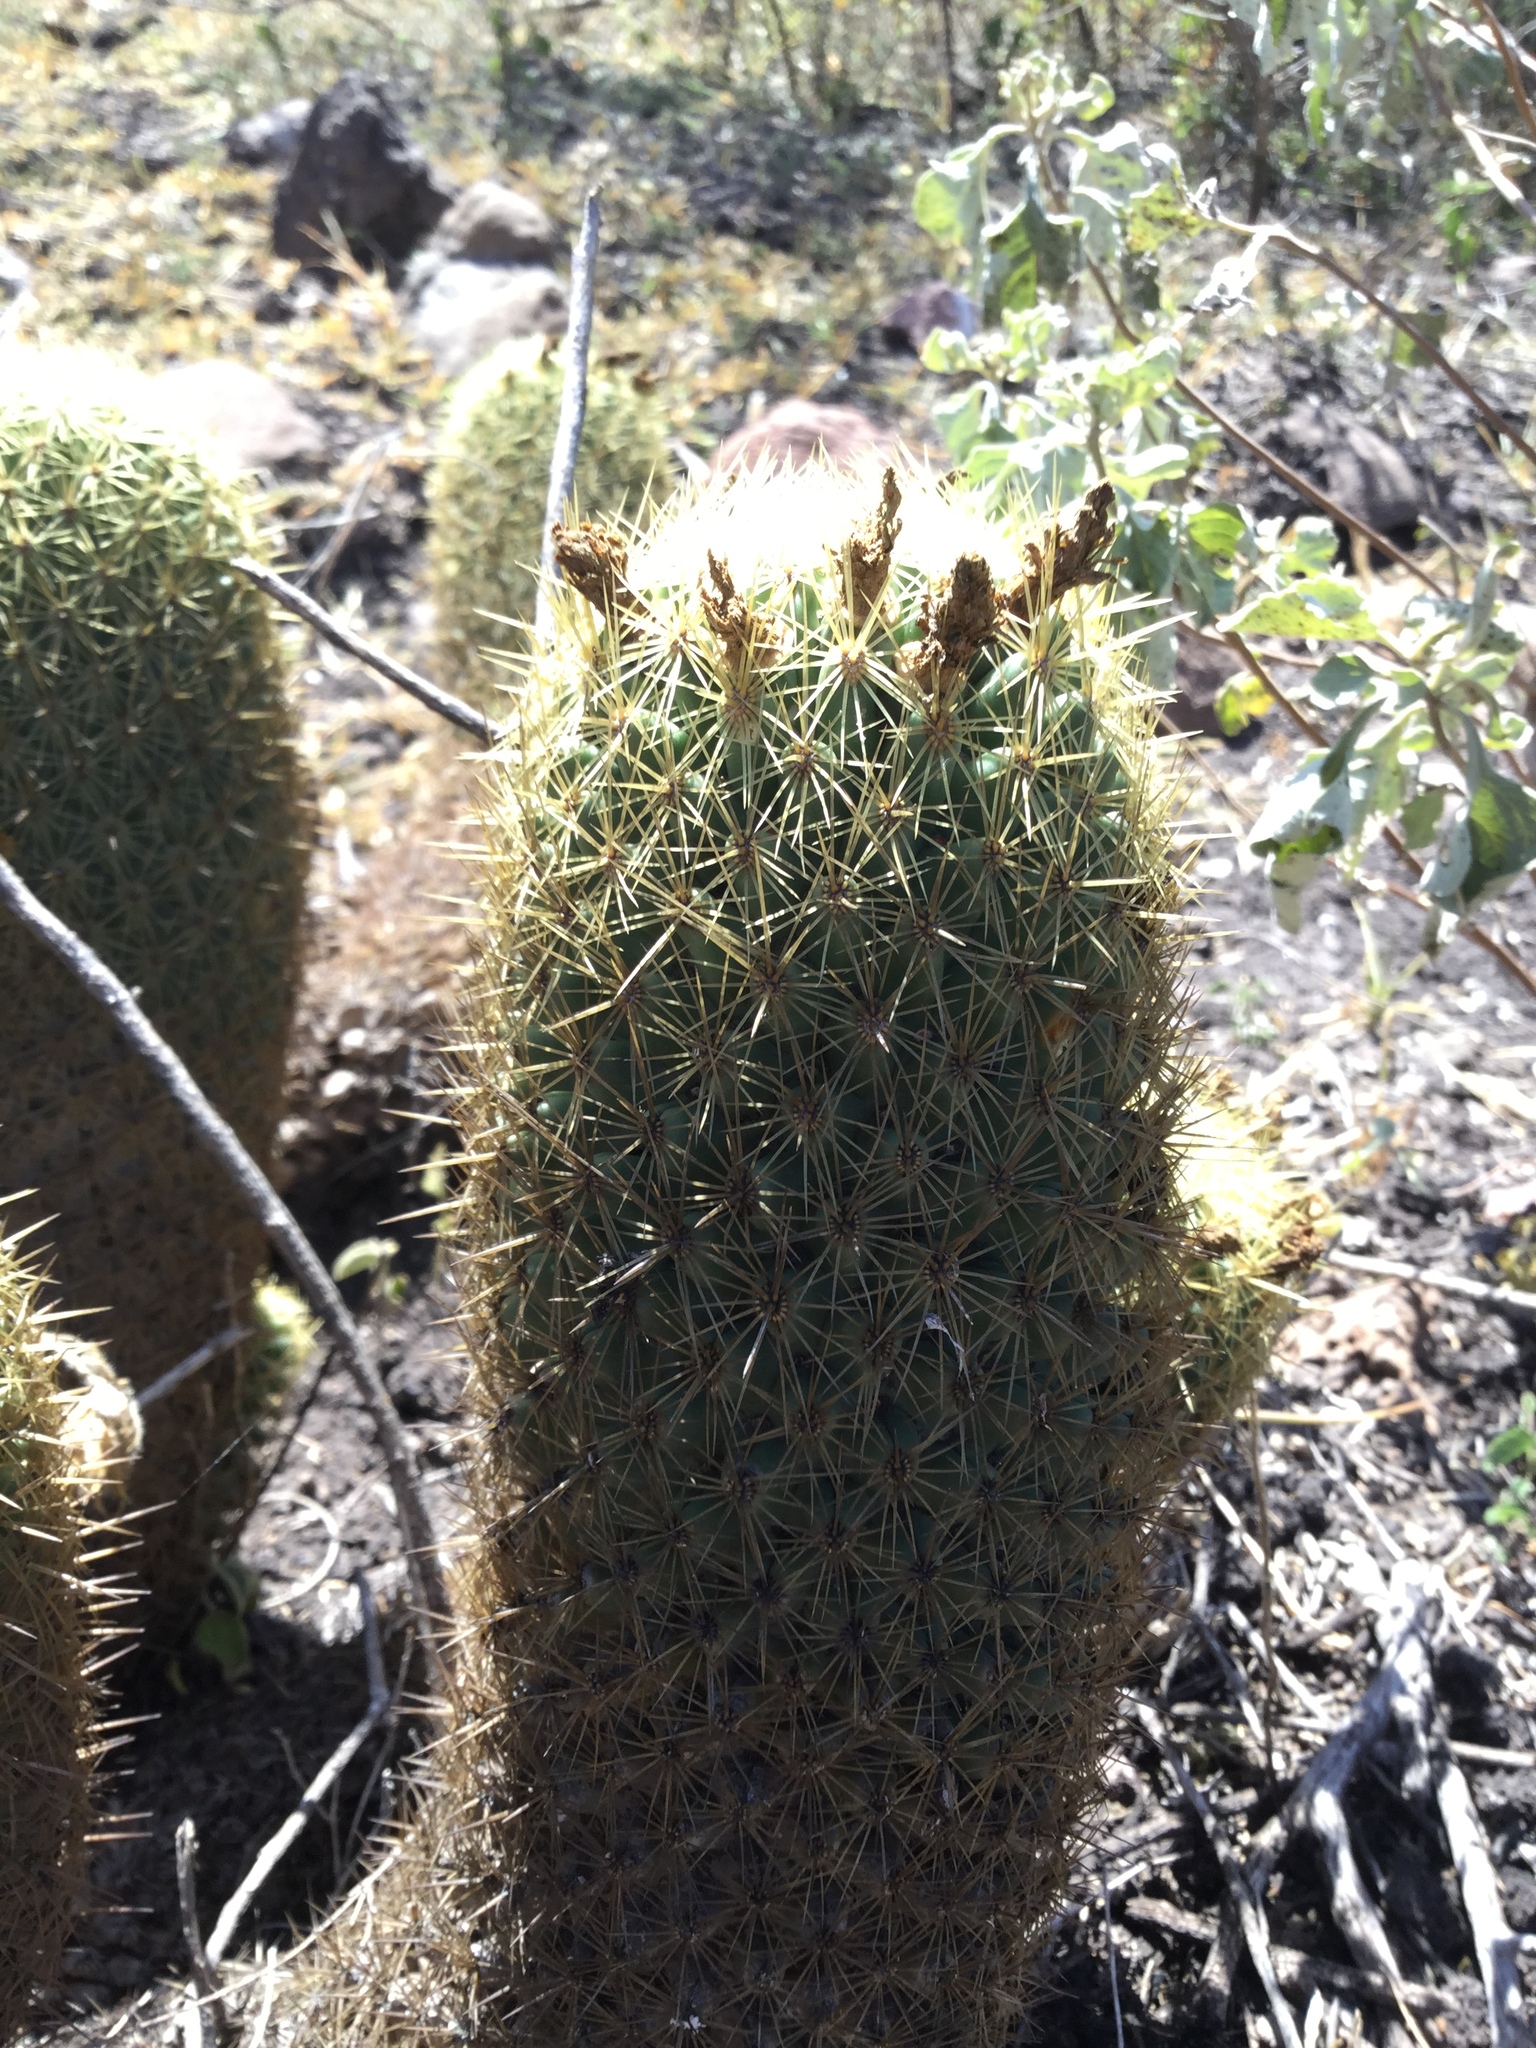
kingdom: Plantae
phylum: Tracheophyta
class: Magnoliopsida
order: Caryophyllales
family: Cactaceae
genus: Coryphantha
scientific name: Coryphantha erecta
